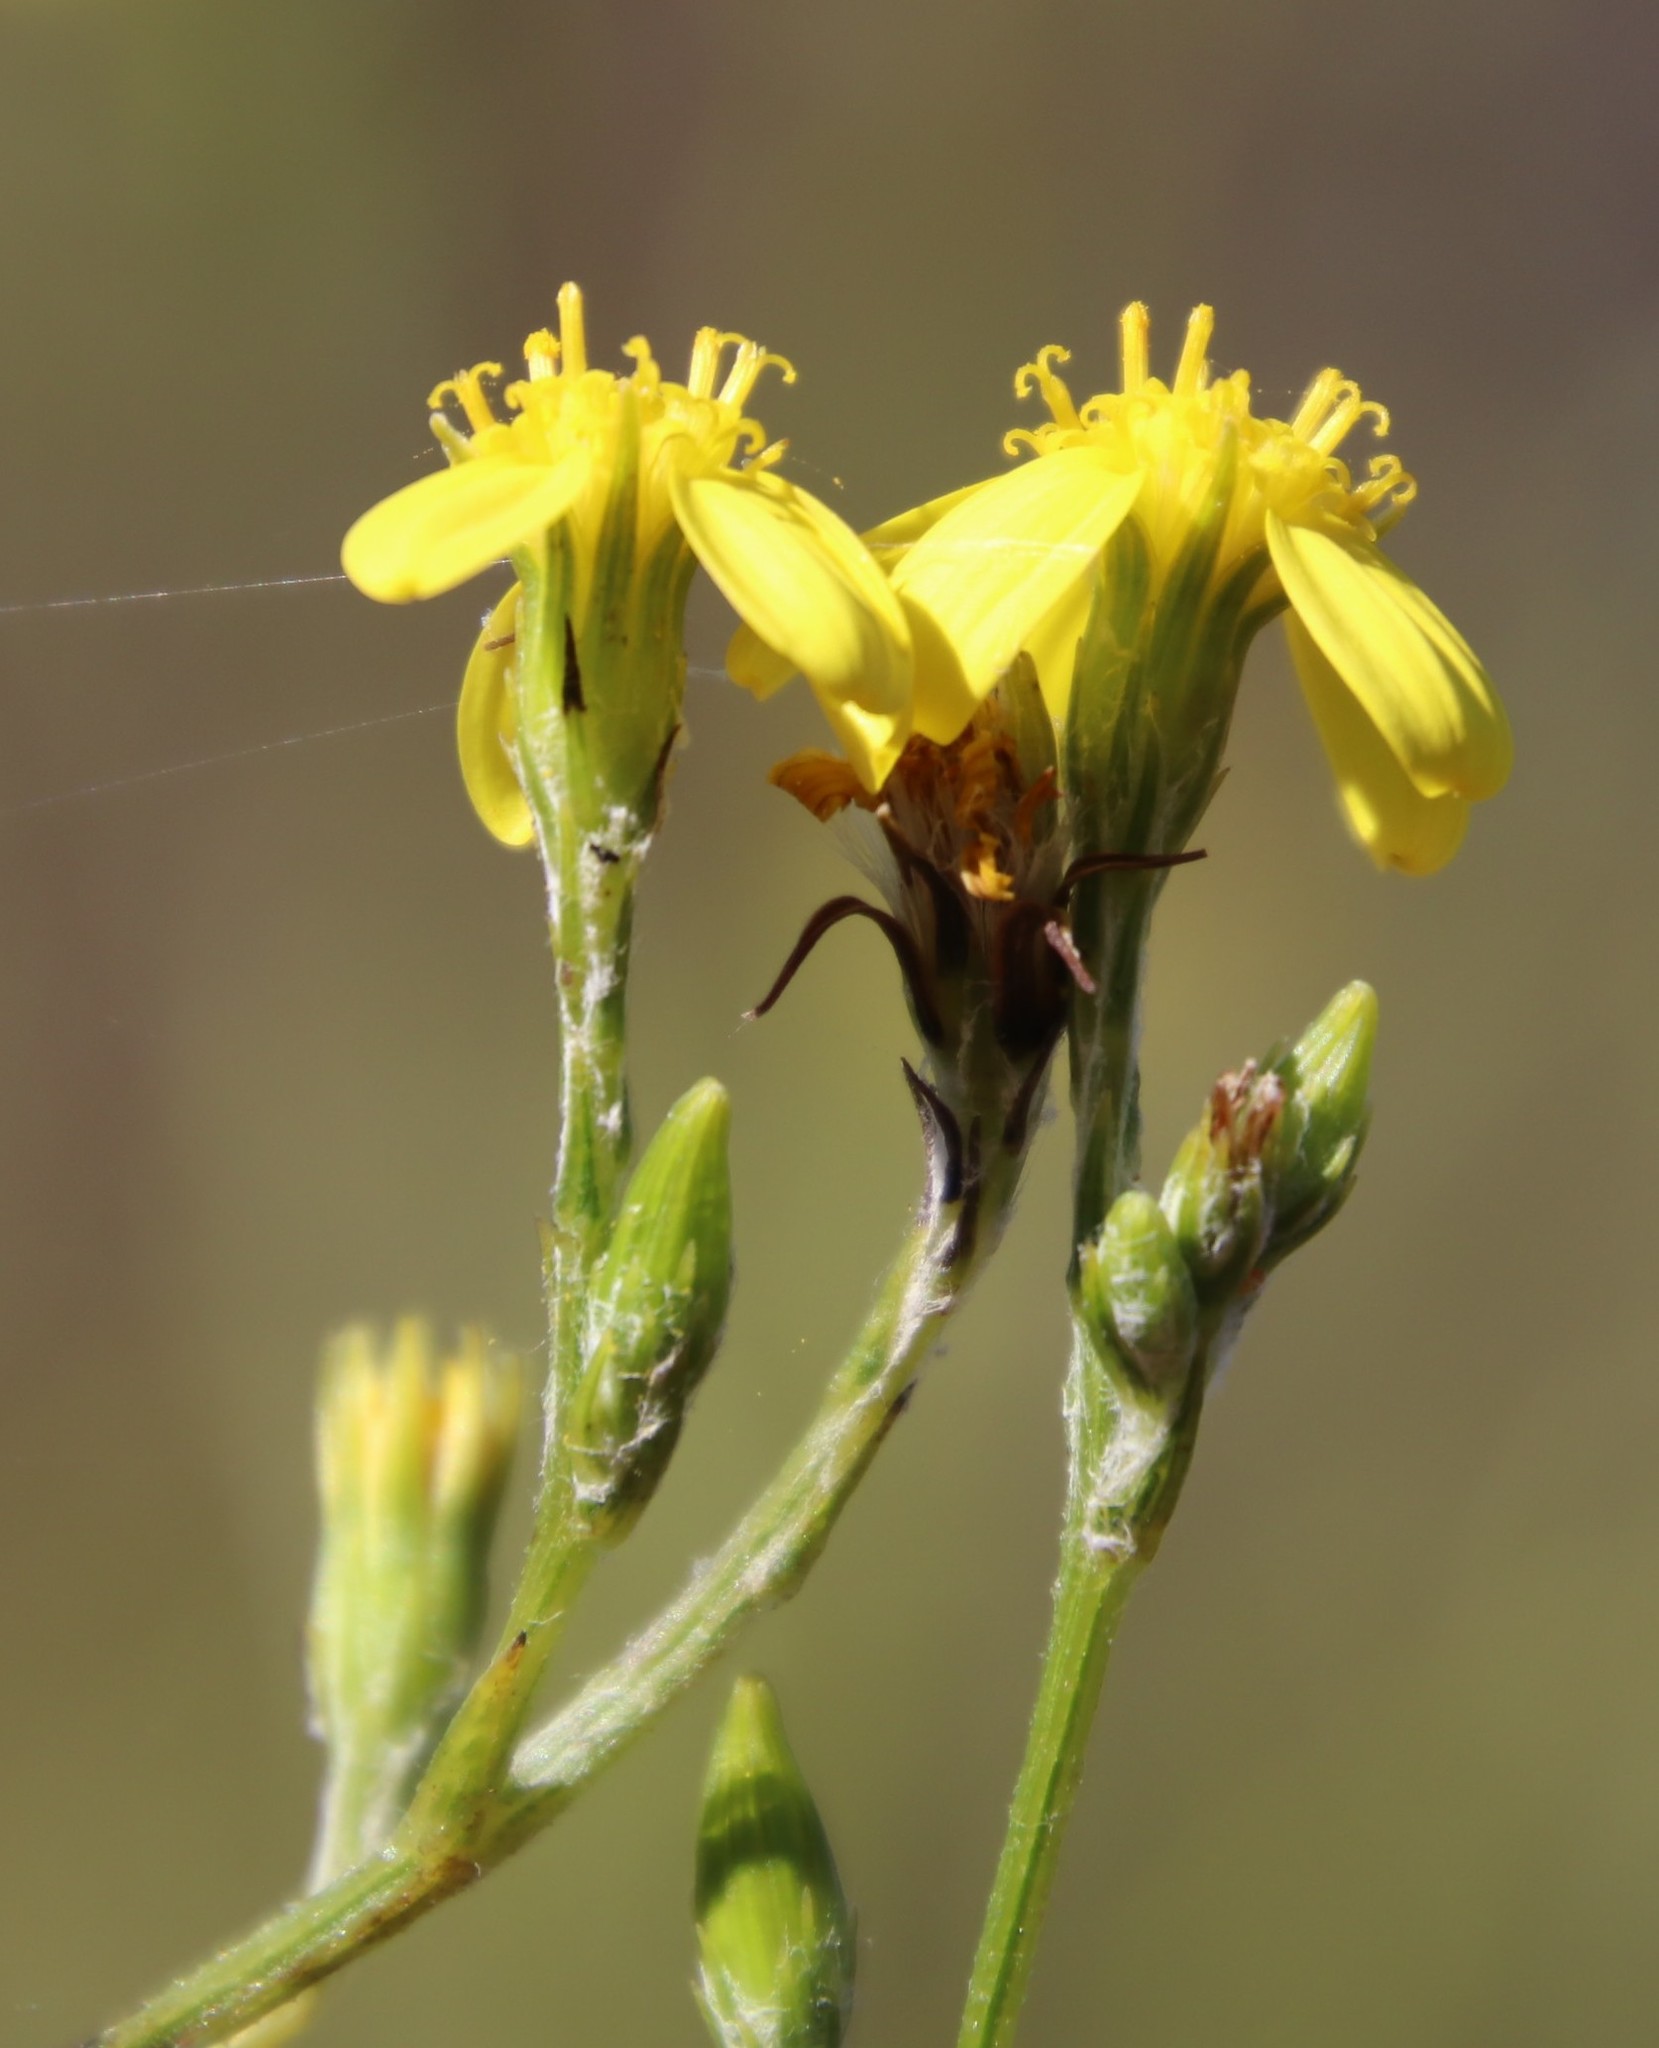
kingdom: Plantae
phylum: Tracheophyta
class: Magnoliopsida
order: Asterales
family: Asteraceae
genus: Senecio
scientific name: Senecio pubigerus
